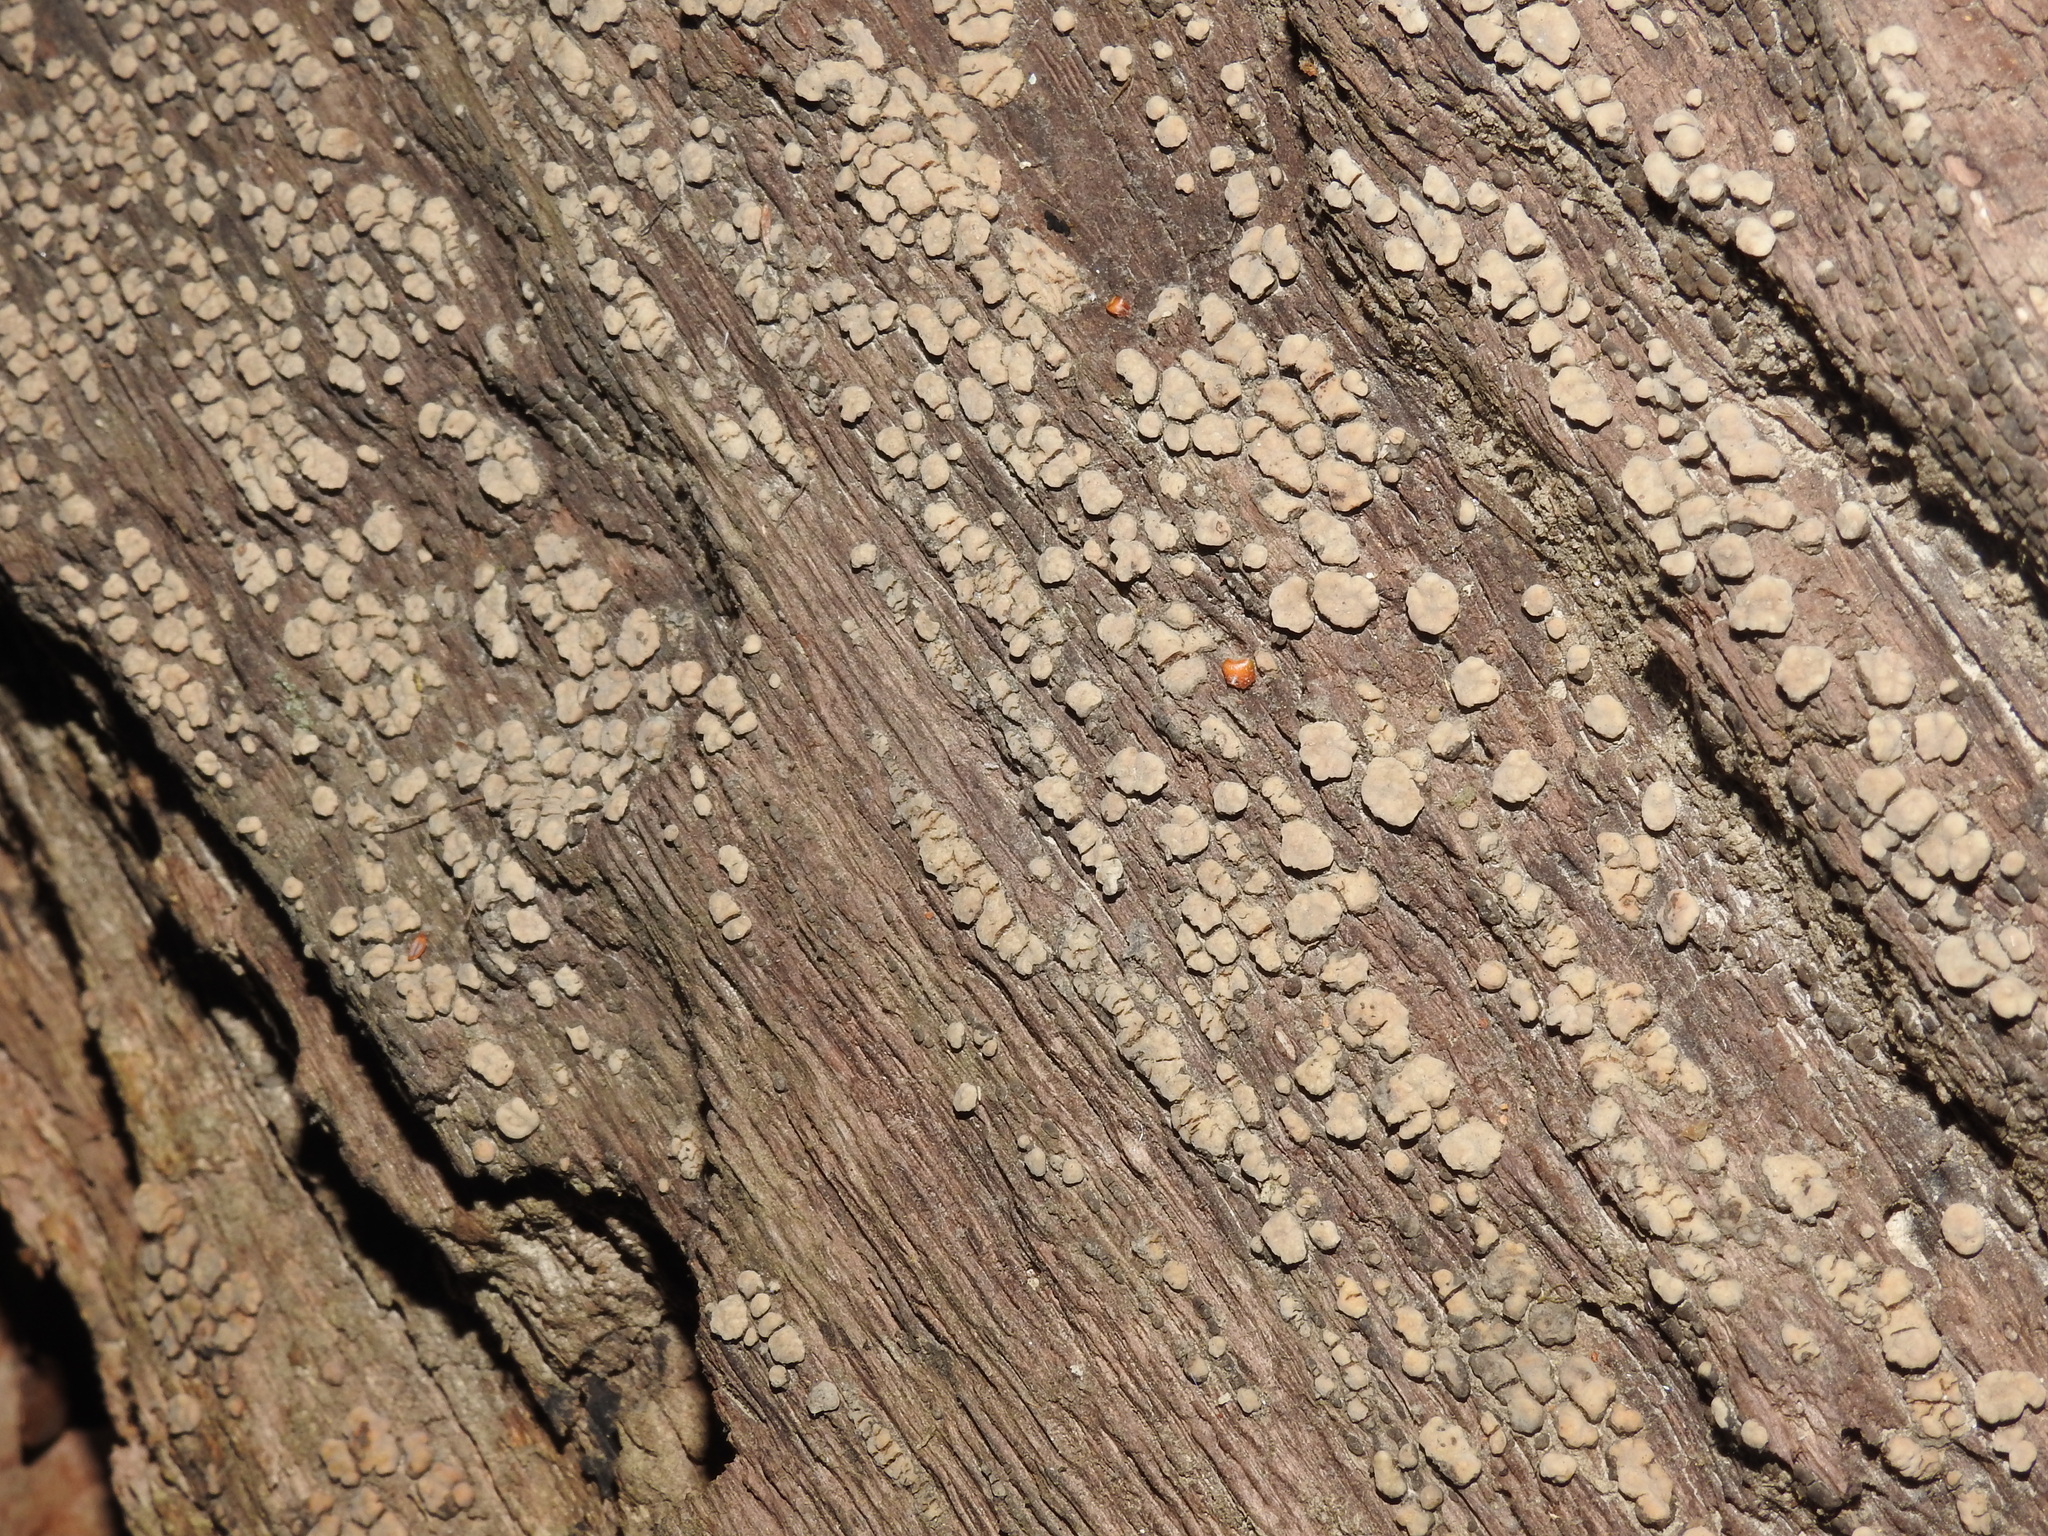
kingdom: Fungi
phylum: Basidiomycota
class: Agaricomycetes
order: Russulales
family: Stereaceae
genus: Xylobolus
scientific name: Xylobolus frustulatus
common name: Ceramic parchment
